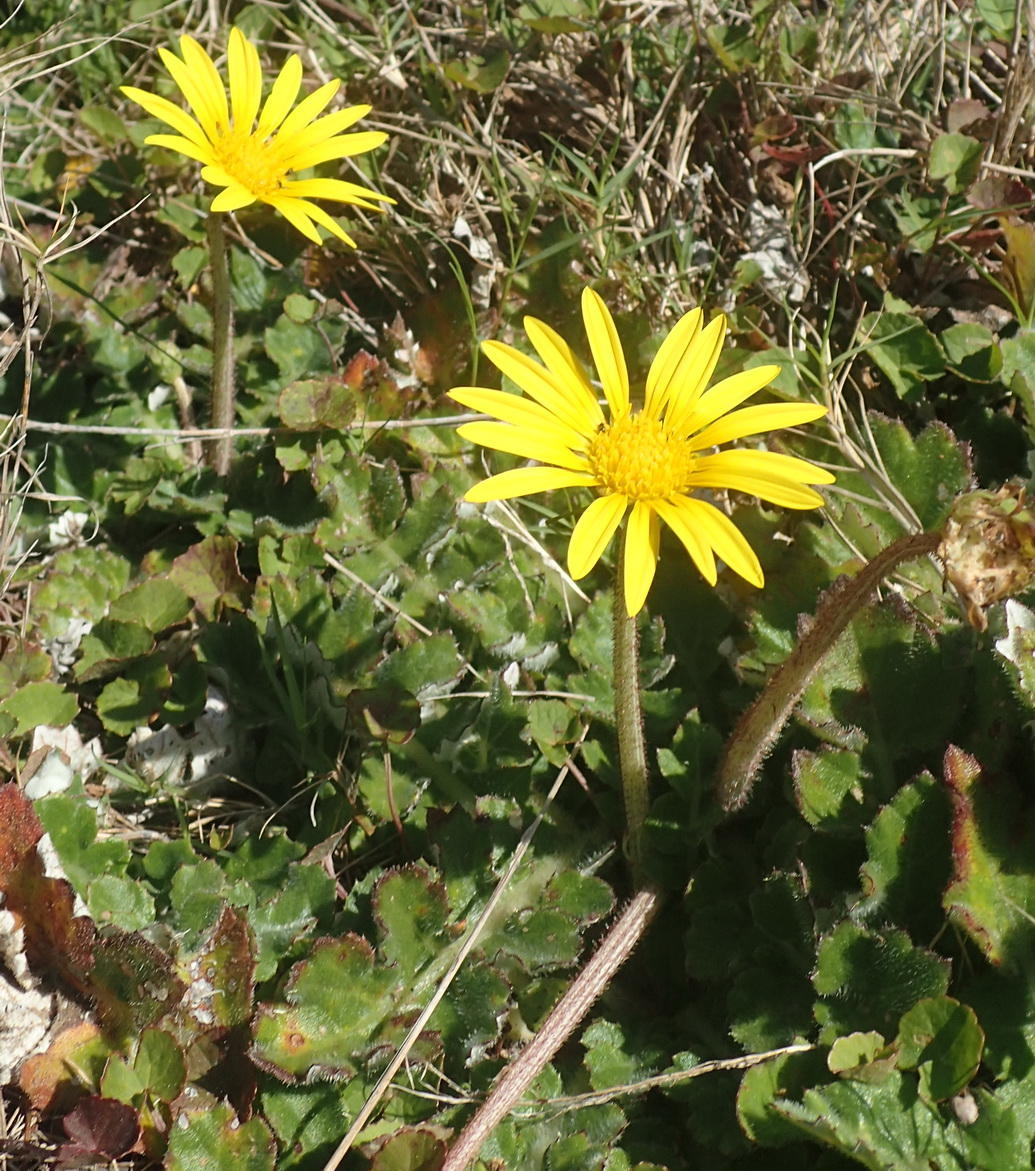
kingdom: Plantae
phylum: Tracheophyta
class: Magnoliopsida
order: Asterales
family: Asteraceae
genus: Arctotheca
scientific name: Arctotheca prostrata
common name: Capeweed
